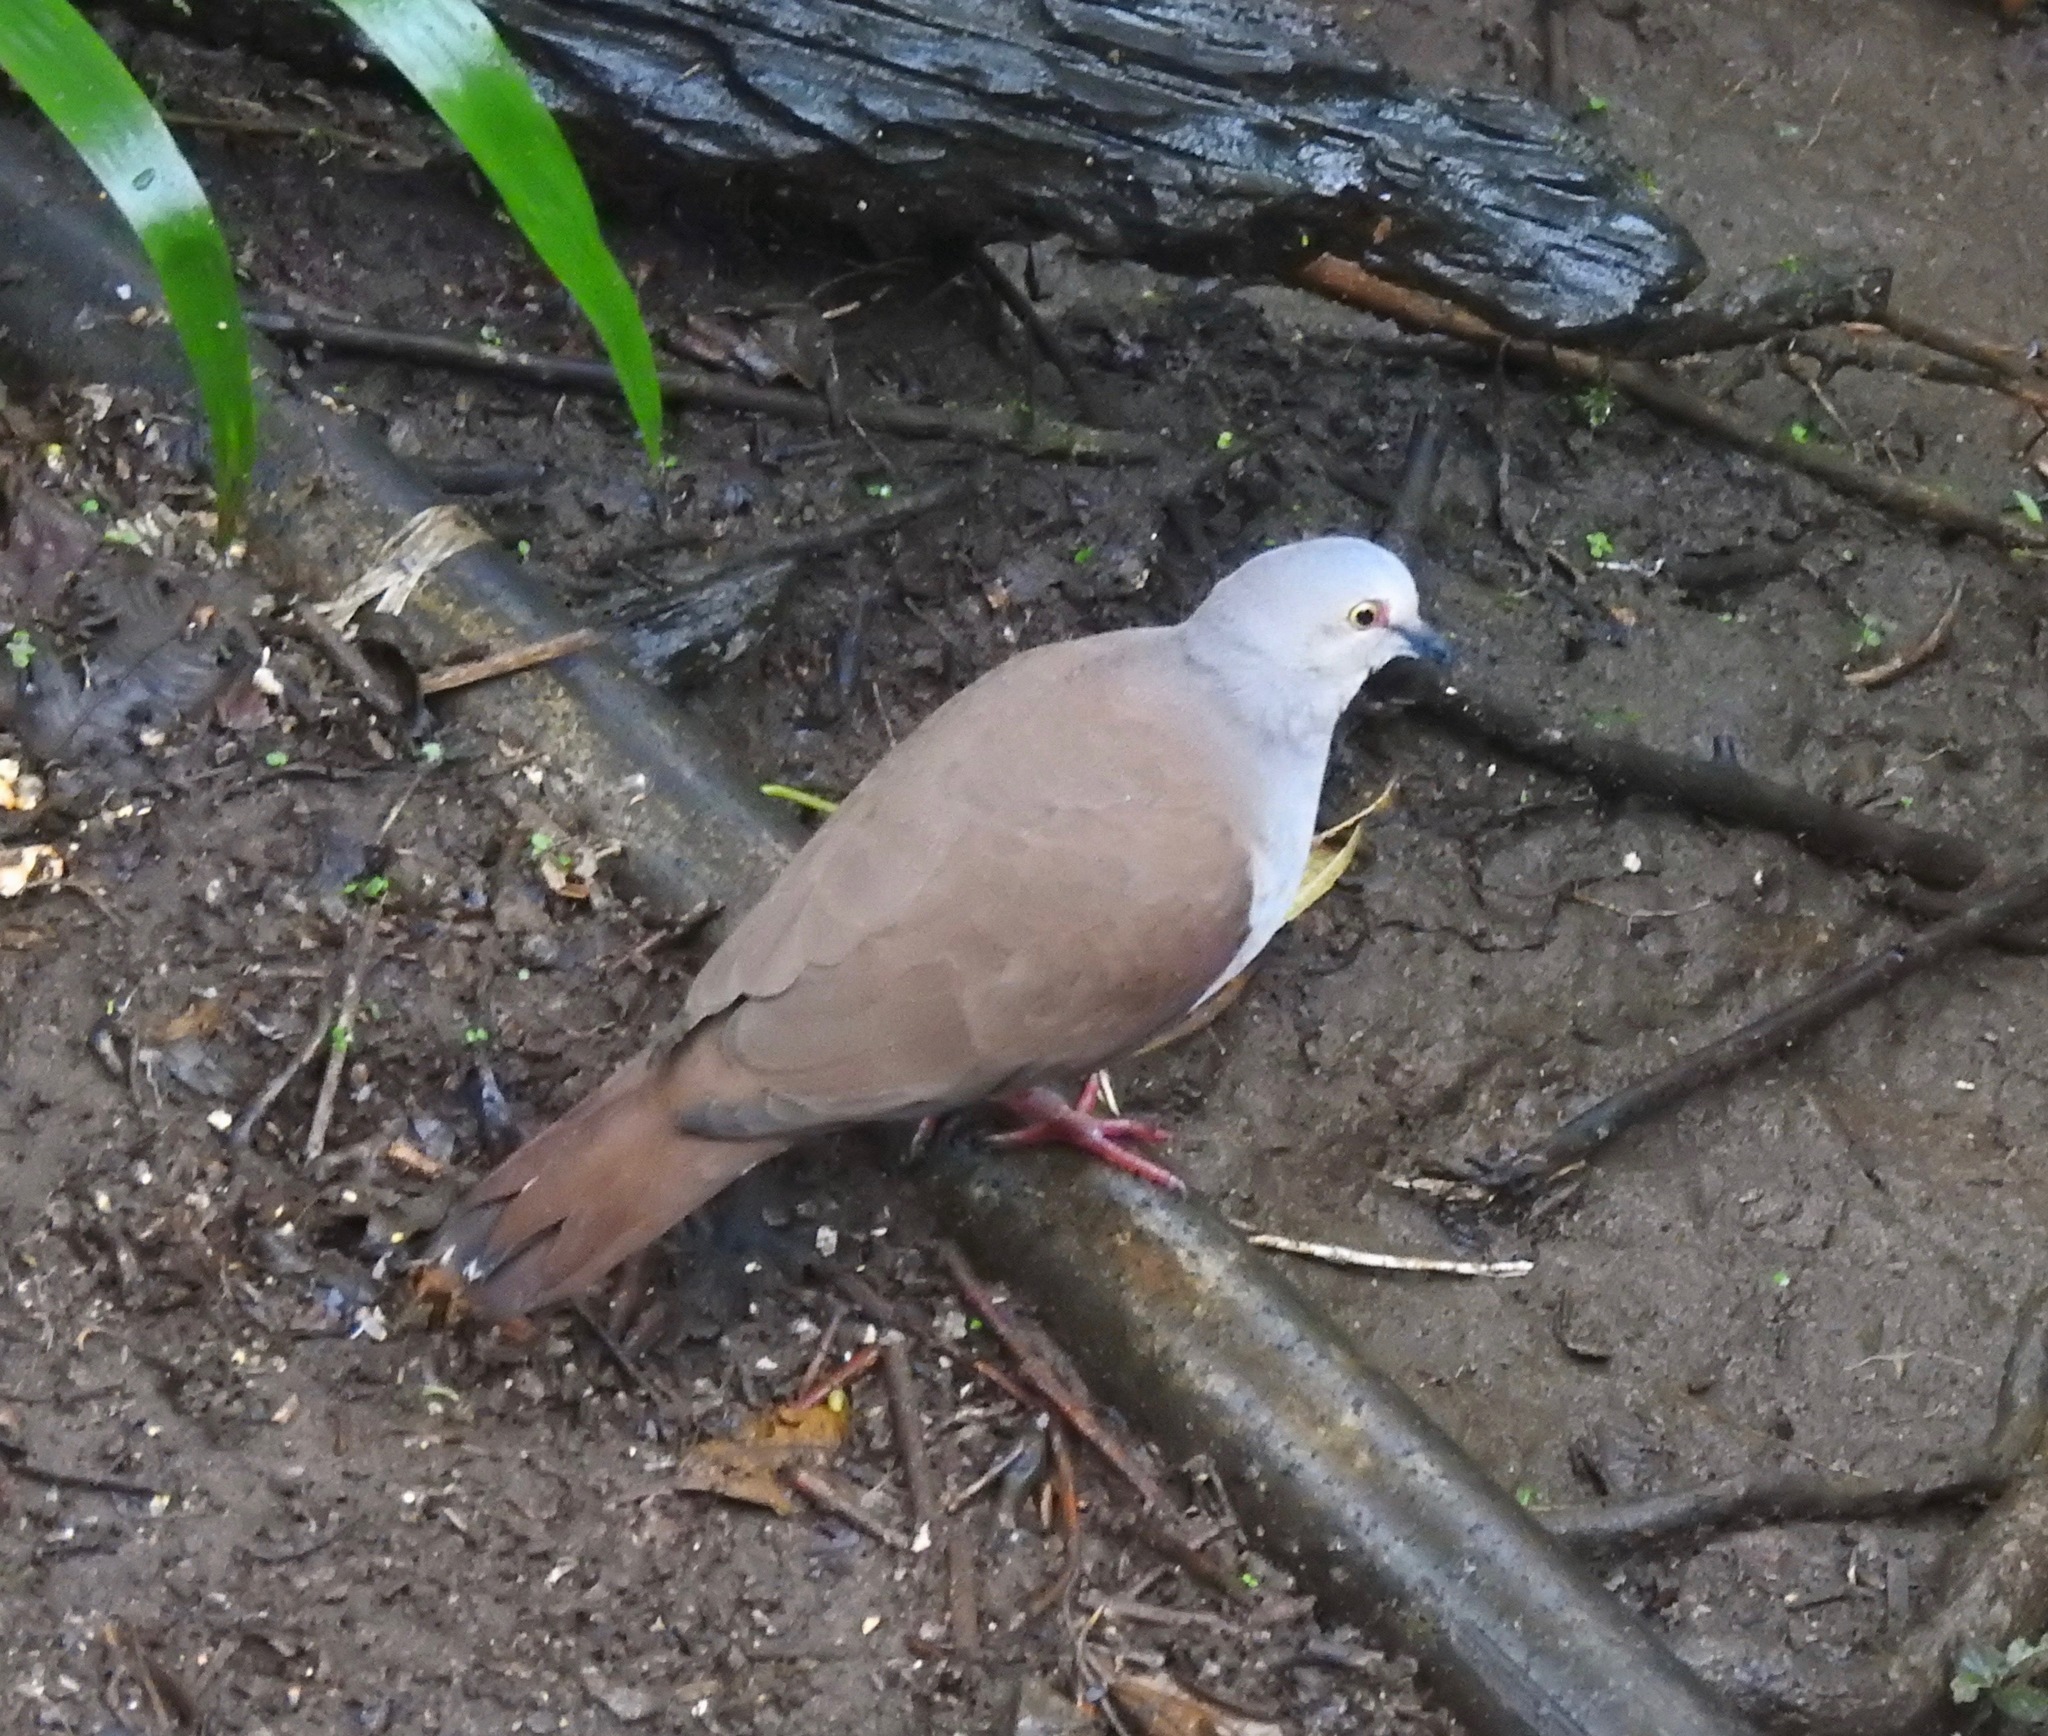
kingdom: Animalia
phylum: Chordata
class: Aves
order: Columbiformes
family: Columbidae
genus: Leptotila
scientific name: Leptotila pallida
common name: Pallid dove
